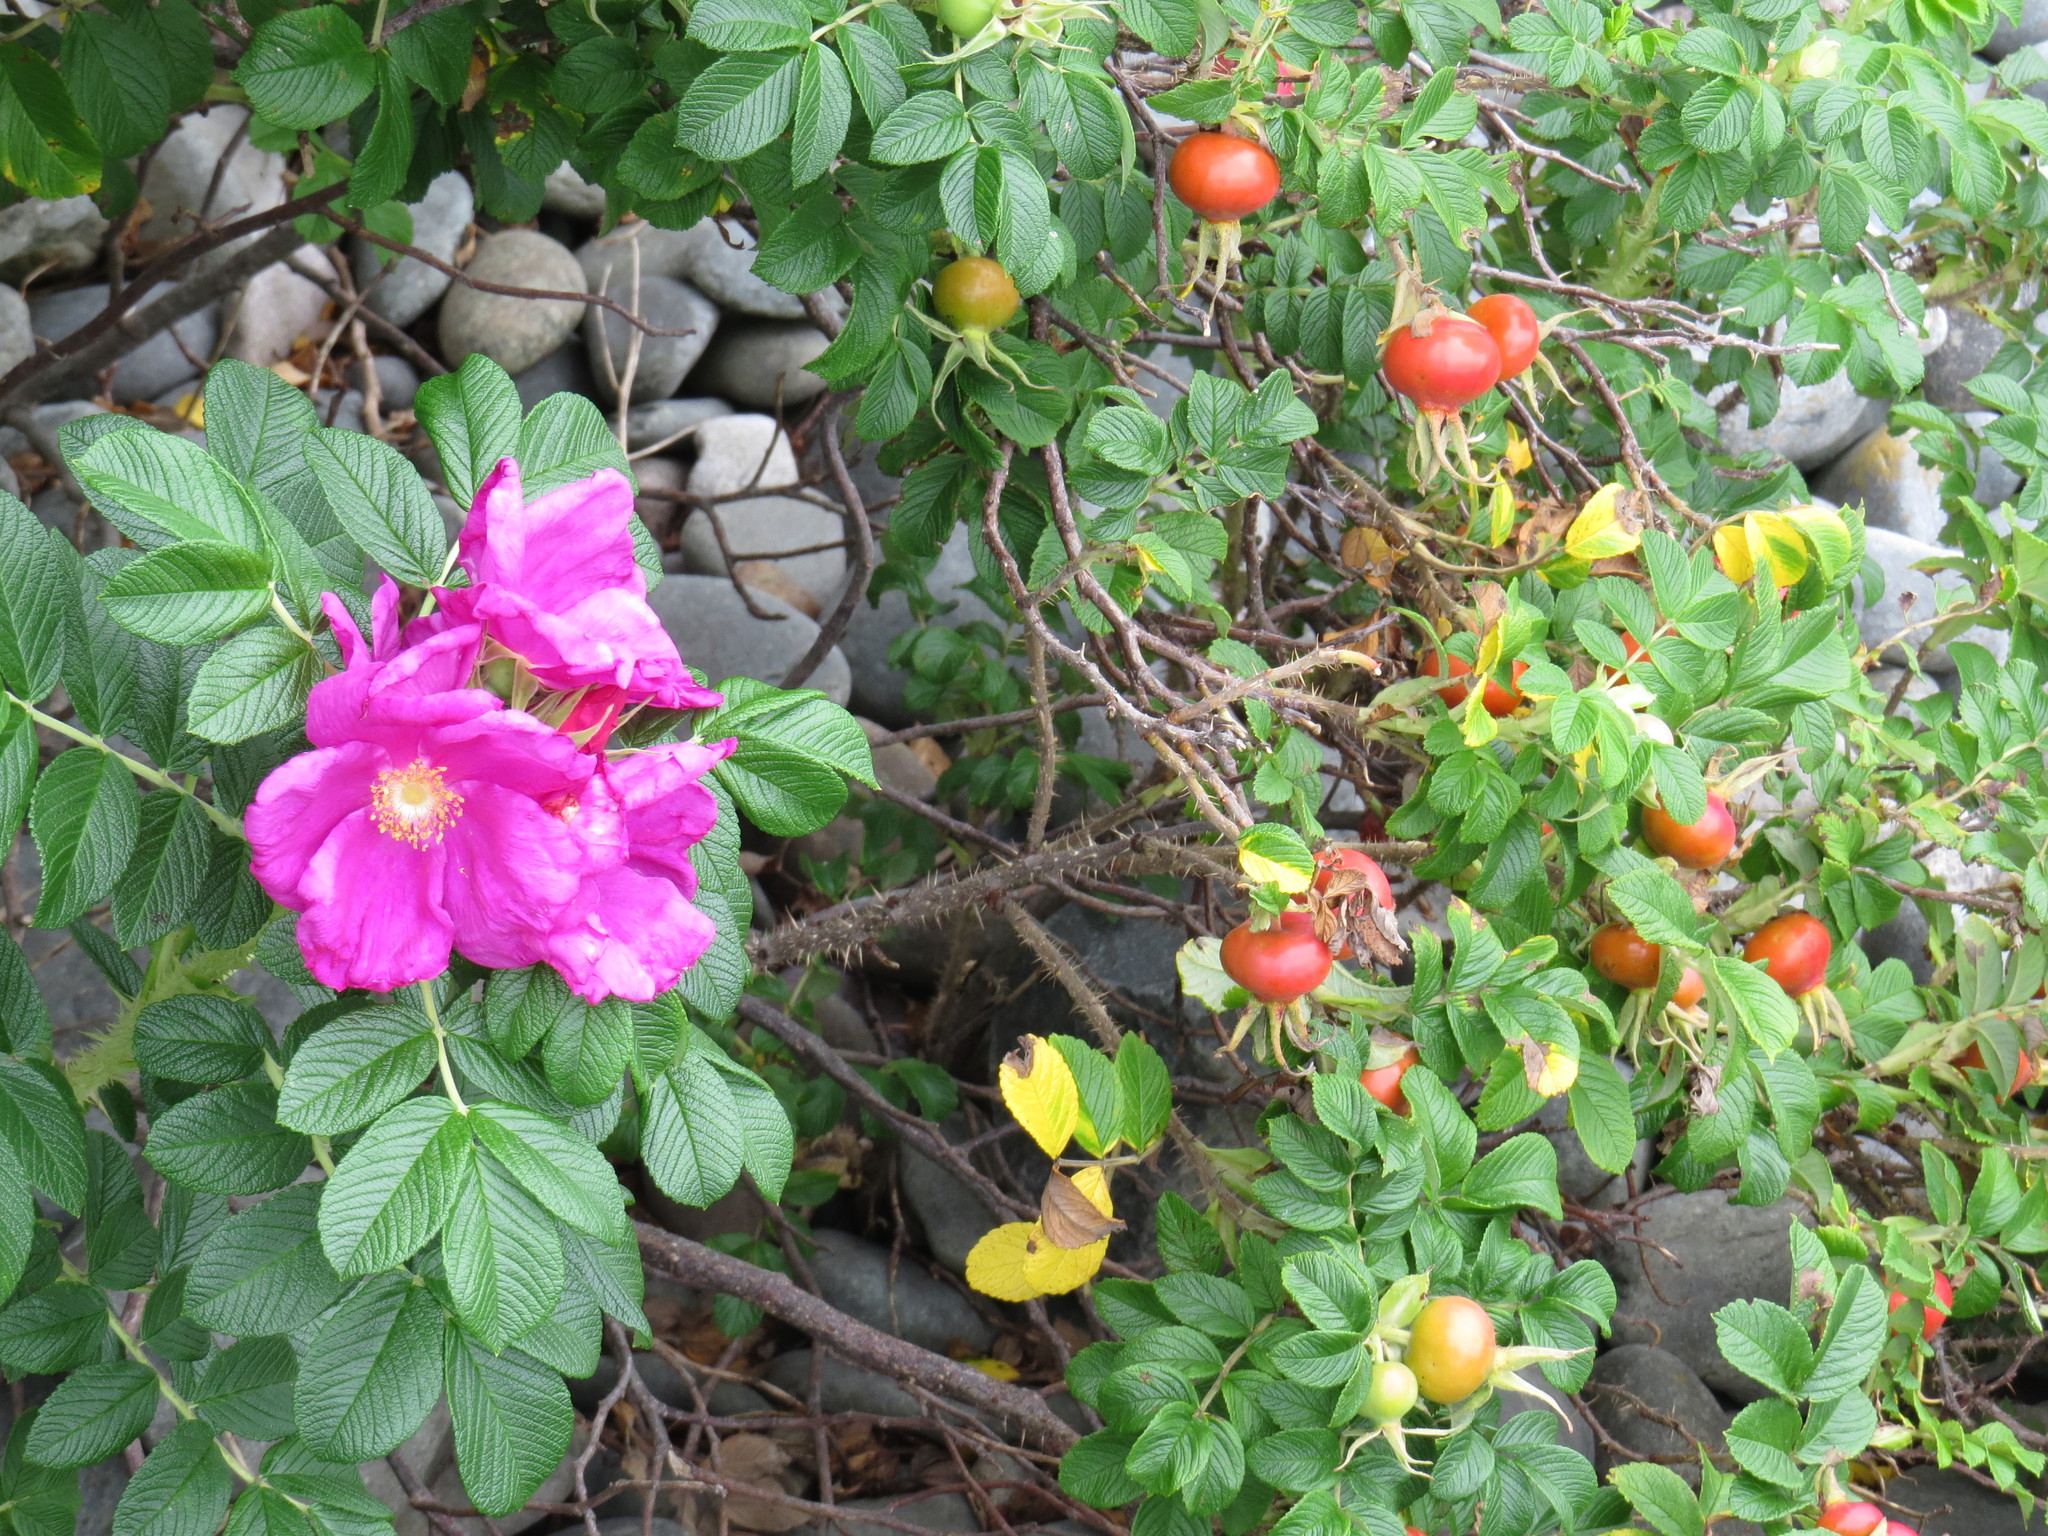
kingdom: Plantae
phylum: Tracheophyta
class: Magnoliopsida
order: Rosales
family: Rosaceae
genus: Rosa
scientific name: Rosa rugosa
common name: Japanese rose
